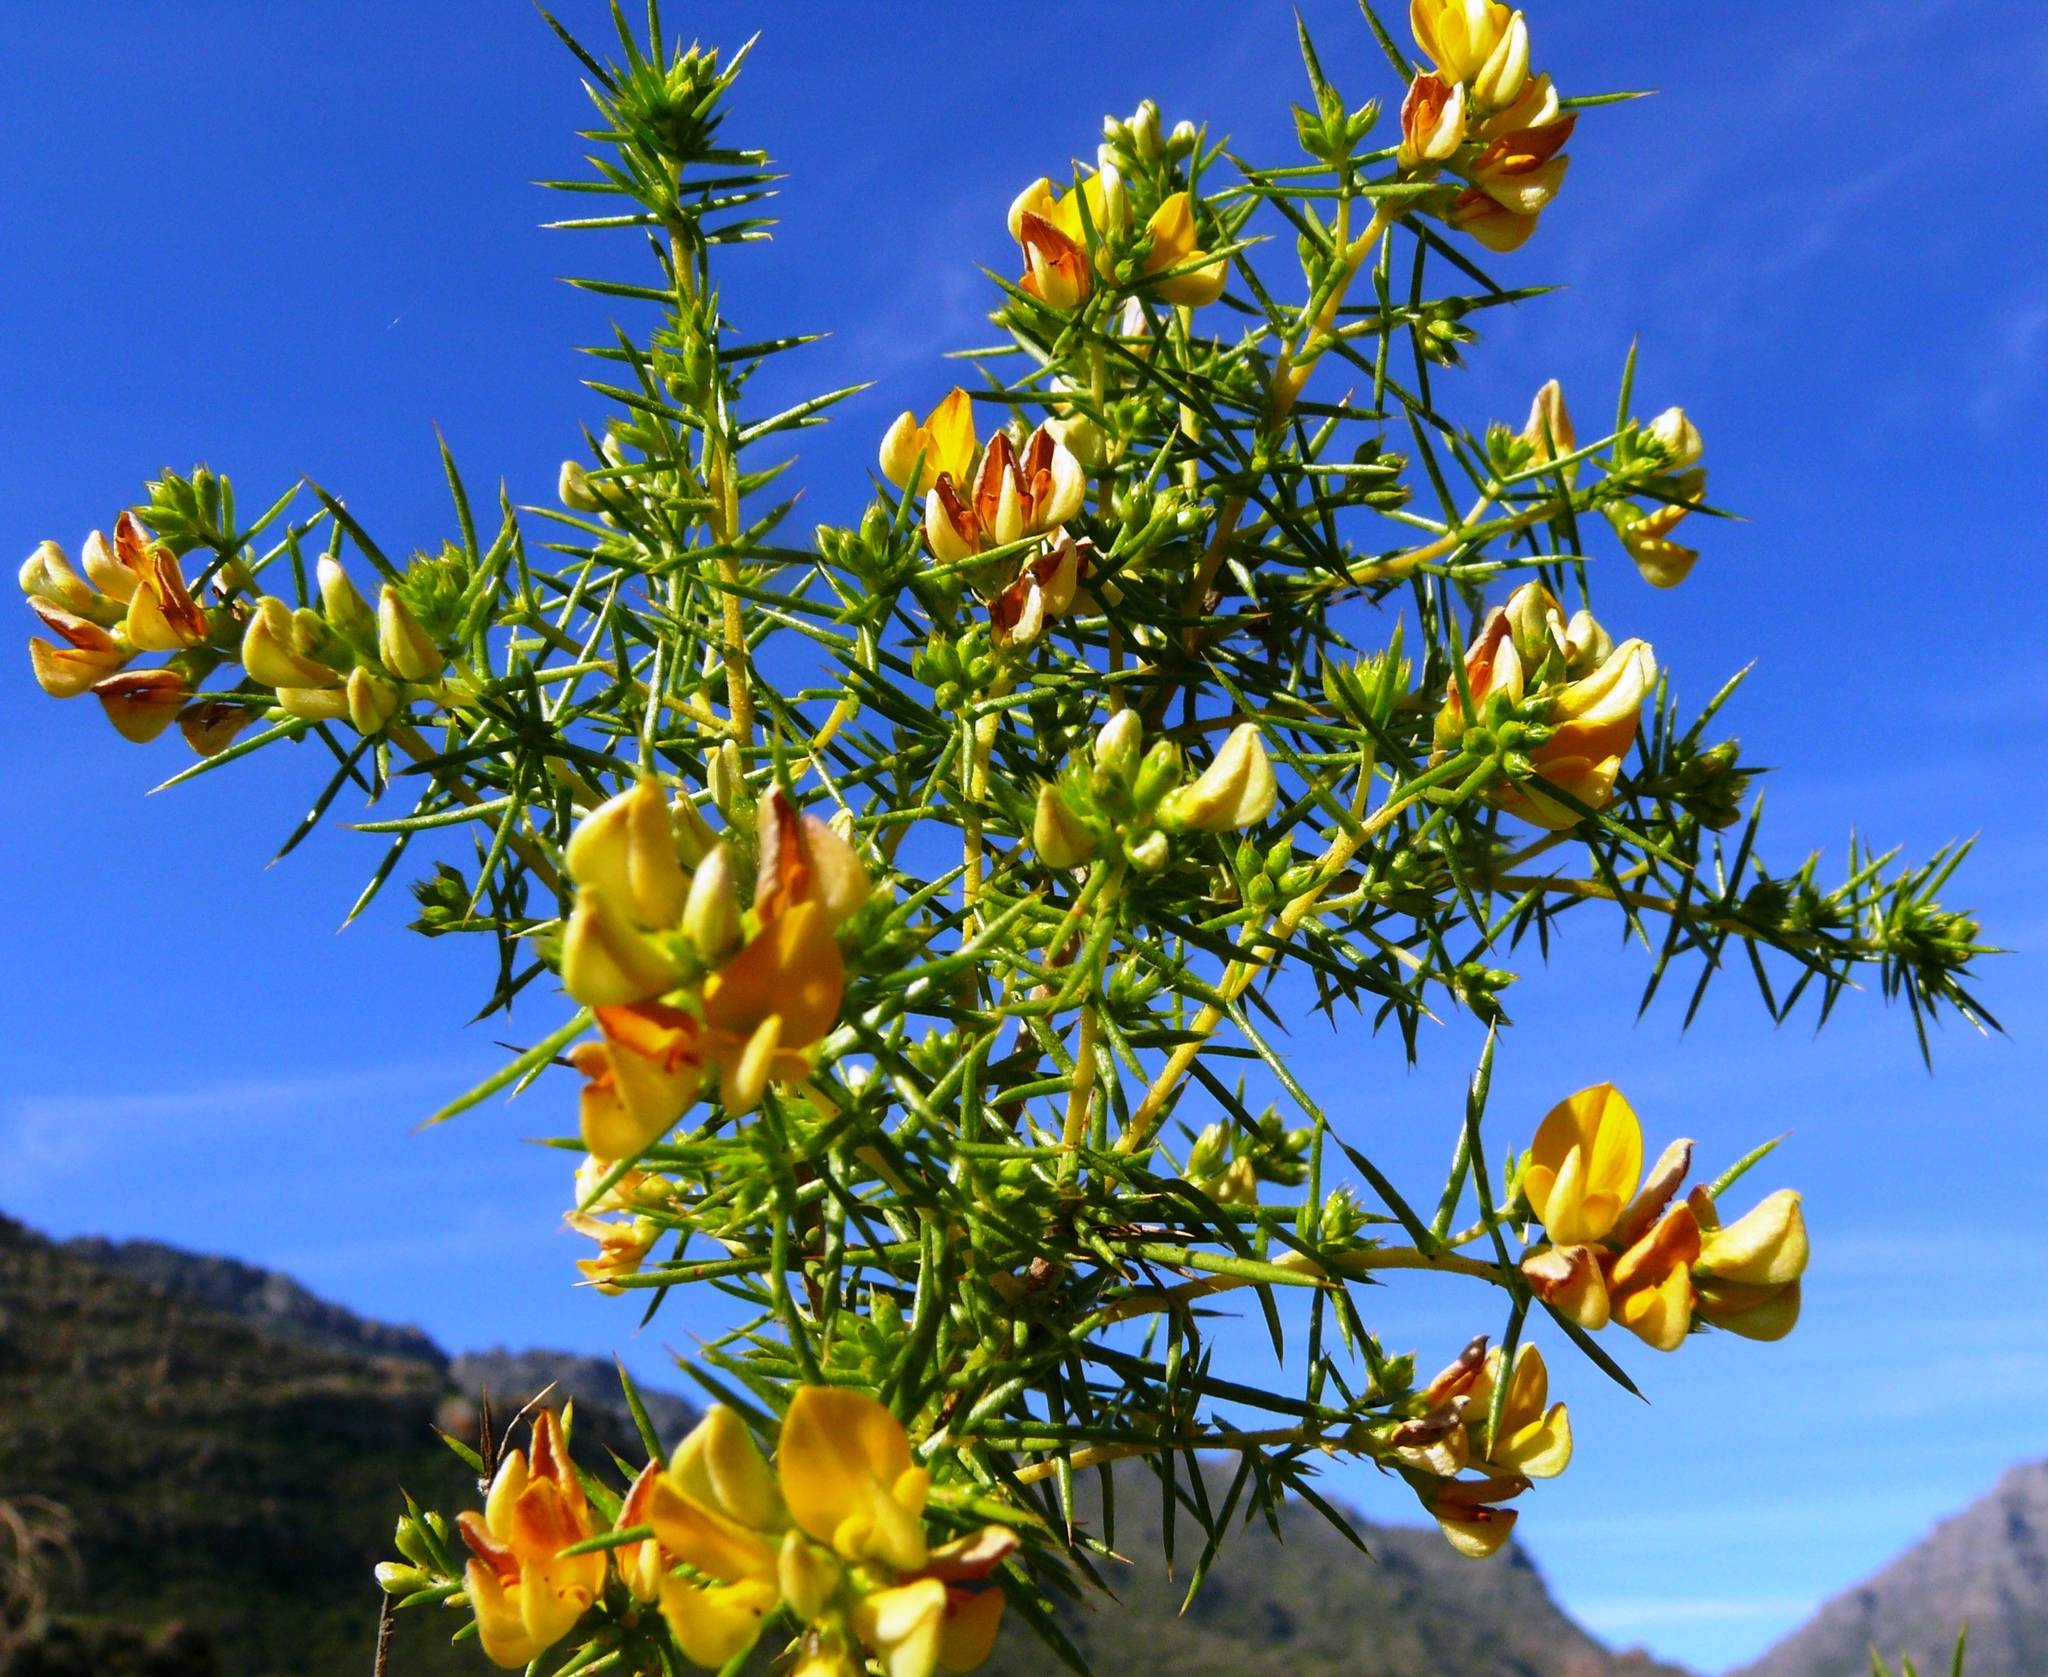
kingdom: Plantae
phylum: Tracheophyta
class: Magnoliopsida
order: Fabales
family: Fabaceae
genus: Aspalathus
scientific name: Aspalathus vulnerans
